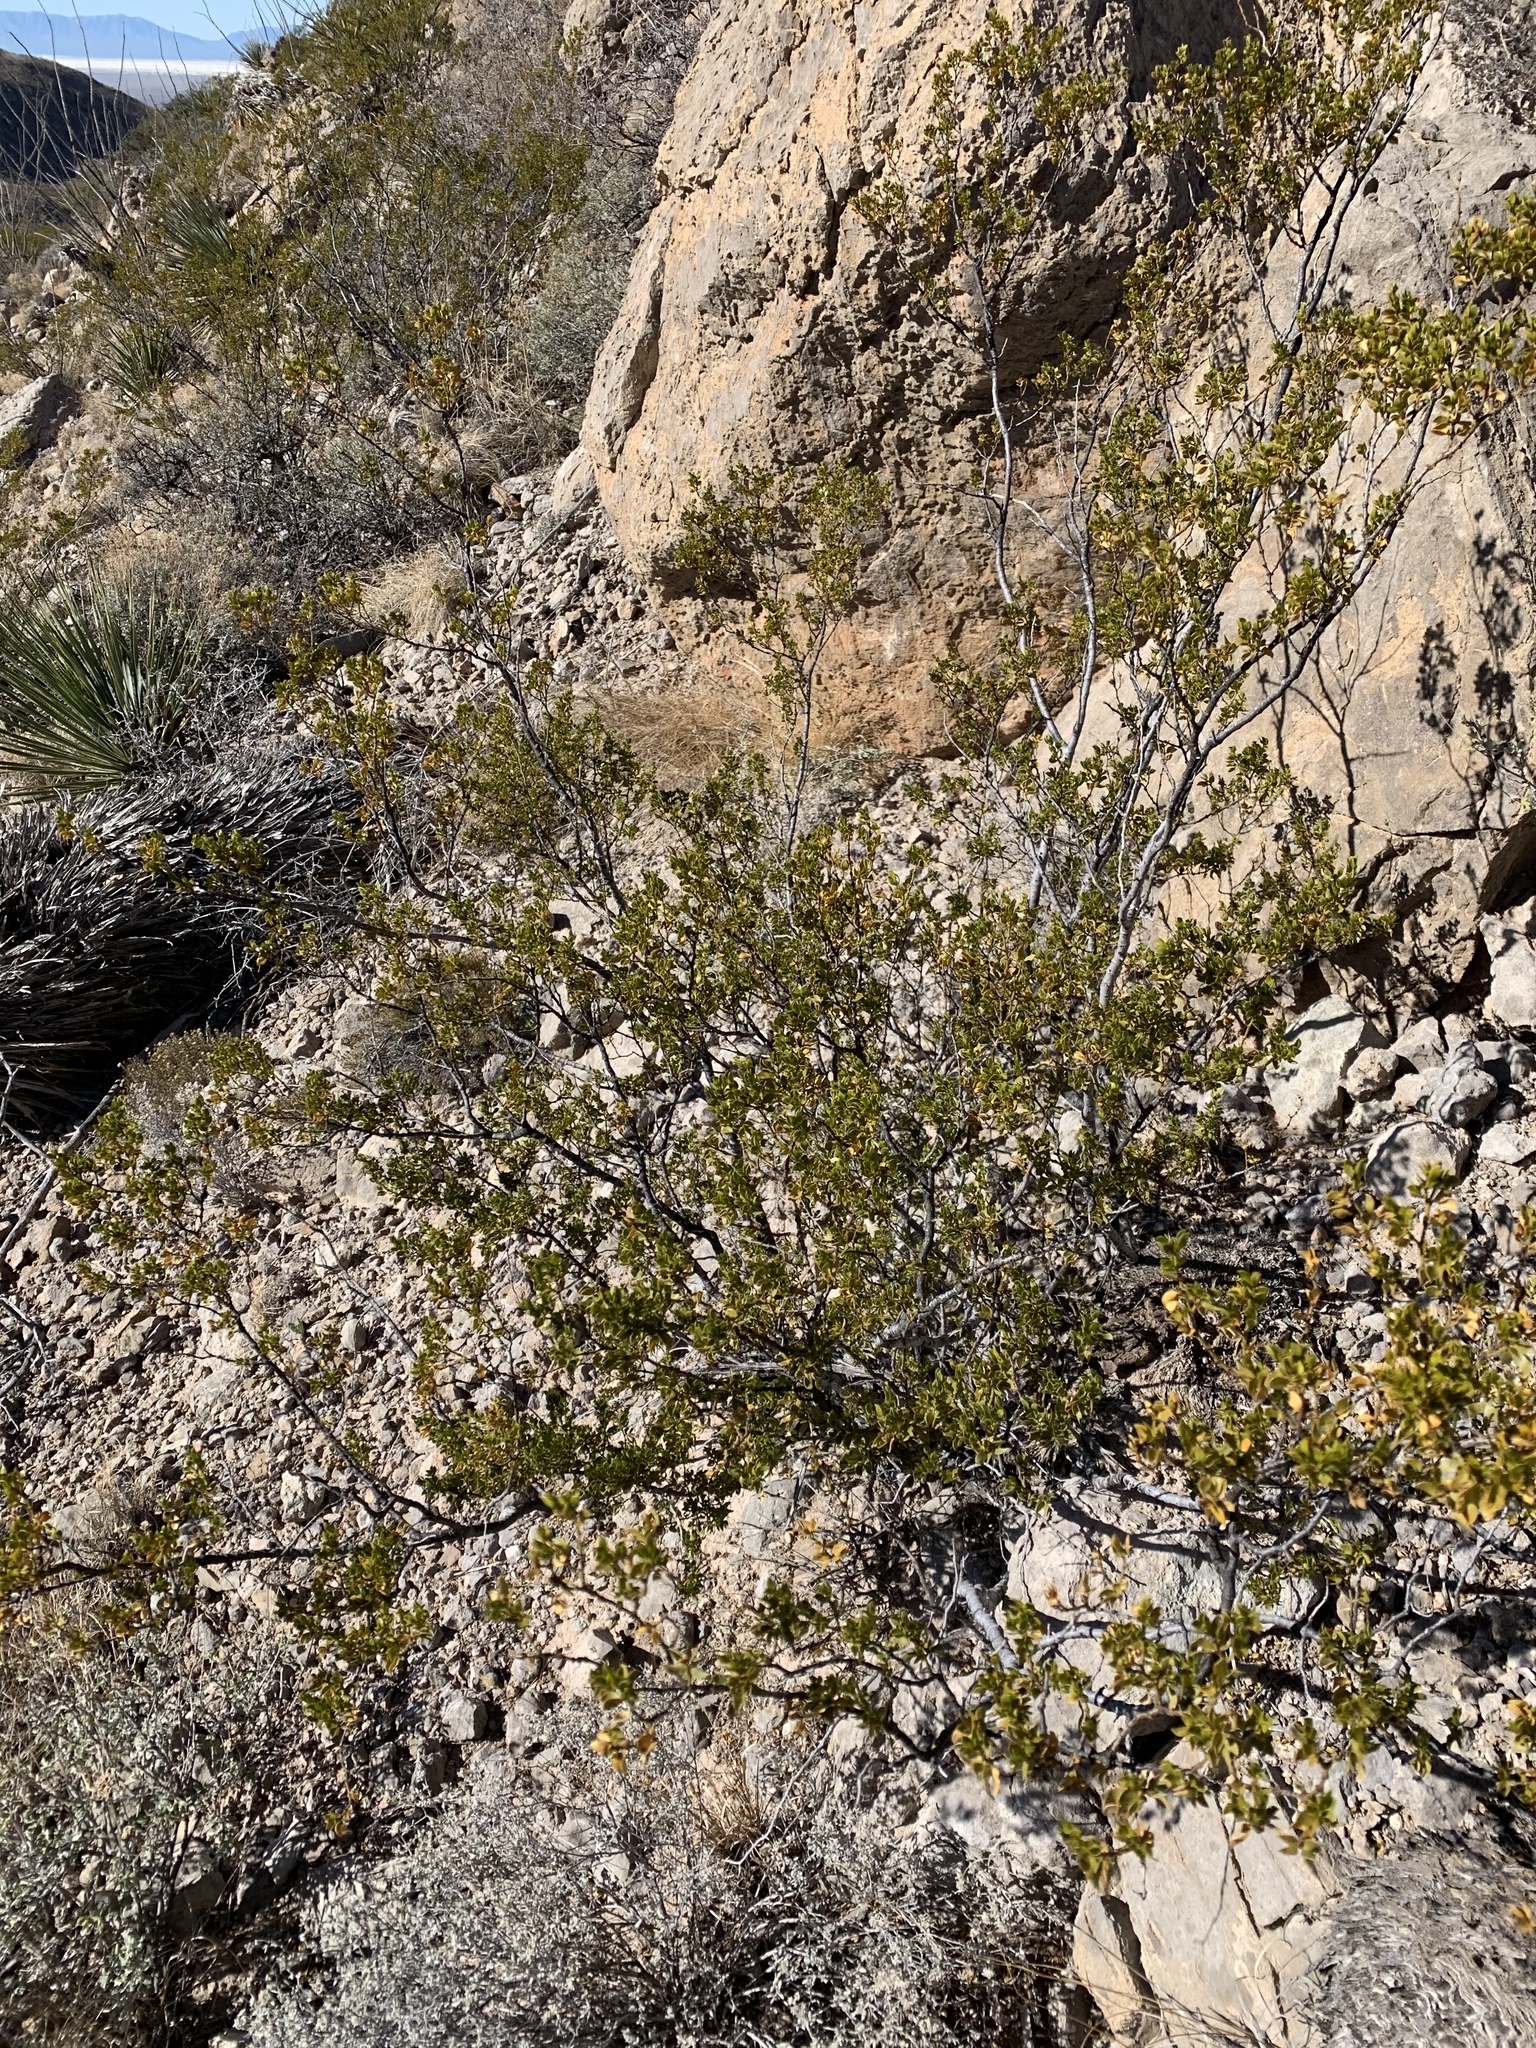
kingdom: Plantae
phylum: Tracheophyta
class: Magnoliopsida
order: Zygophyllales
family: Zygophyllaceae
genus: Larrea
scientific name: Larrea tridentata
